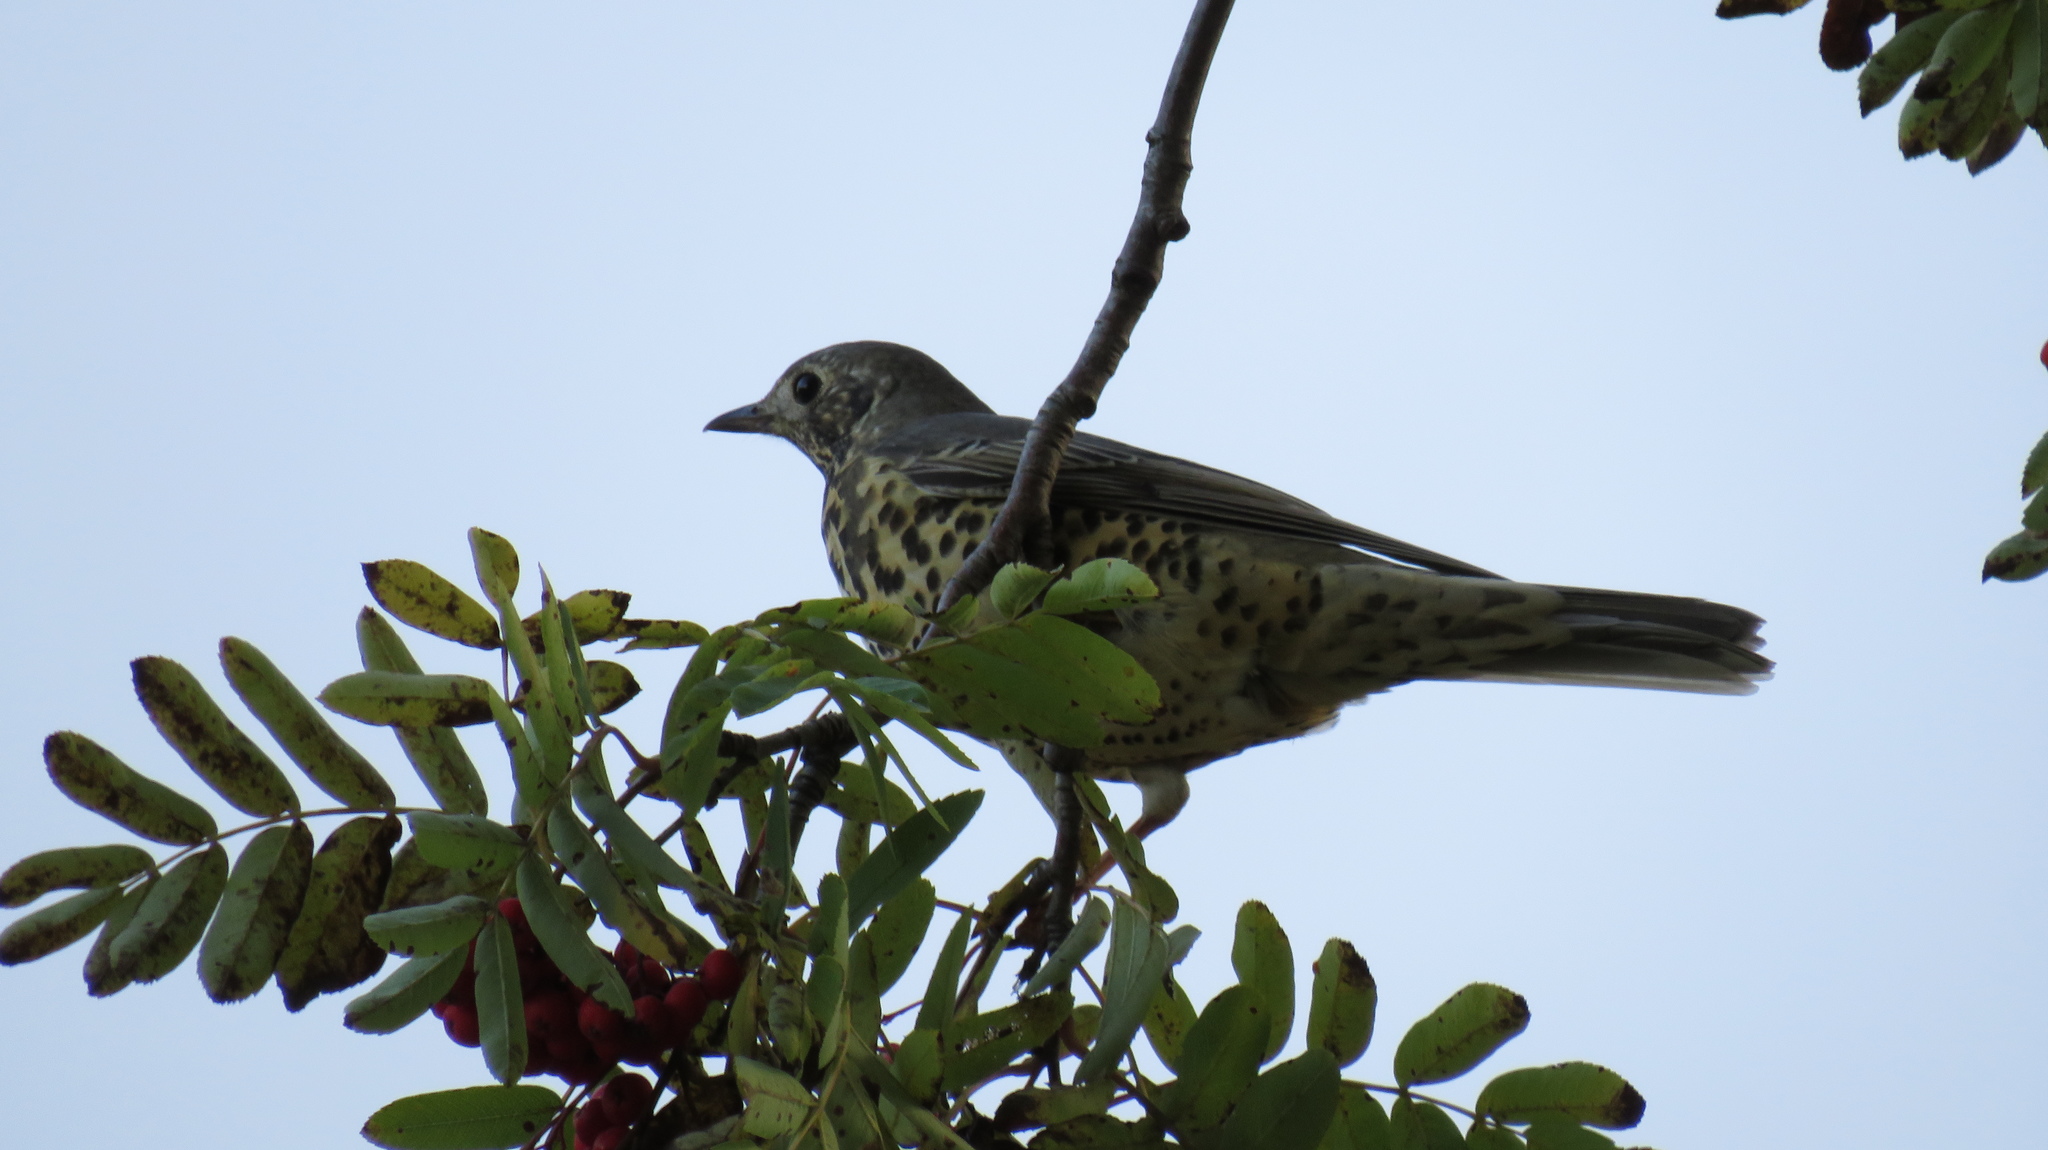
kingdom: Animalia
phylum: Chordata
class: Aves
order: Passeriformes
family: Turdidae
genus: Turdus
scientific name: Turdus viscivorus
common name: Mistle thrush
